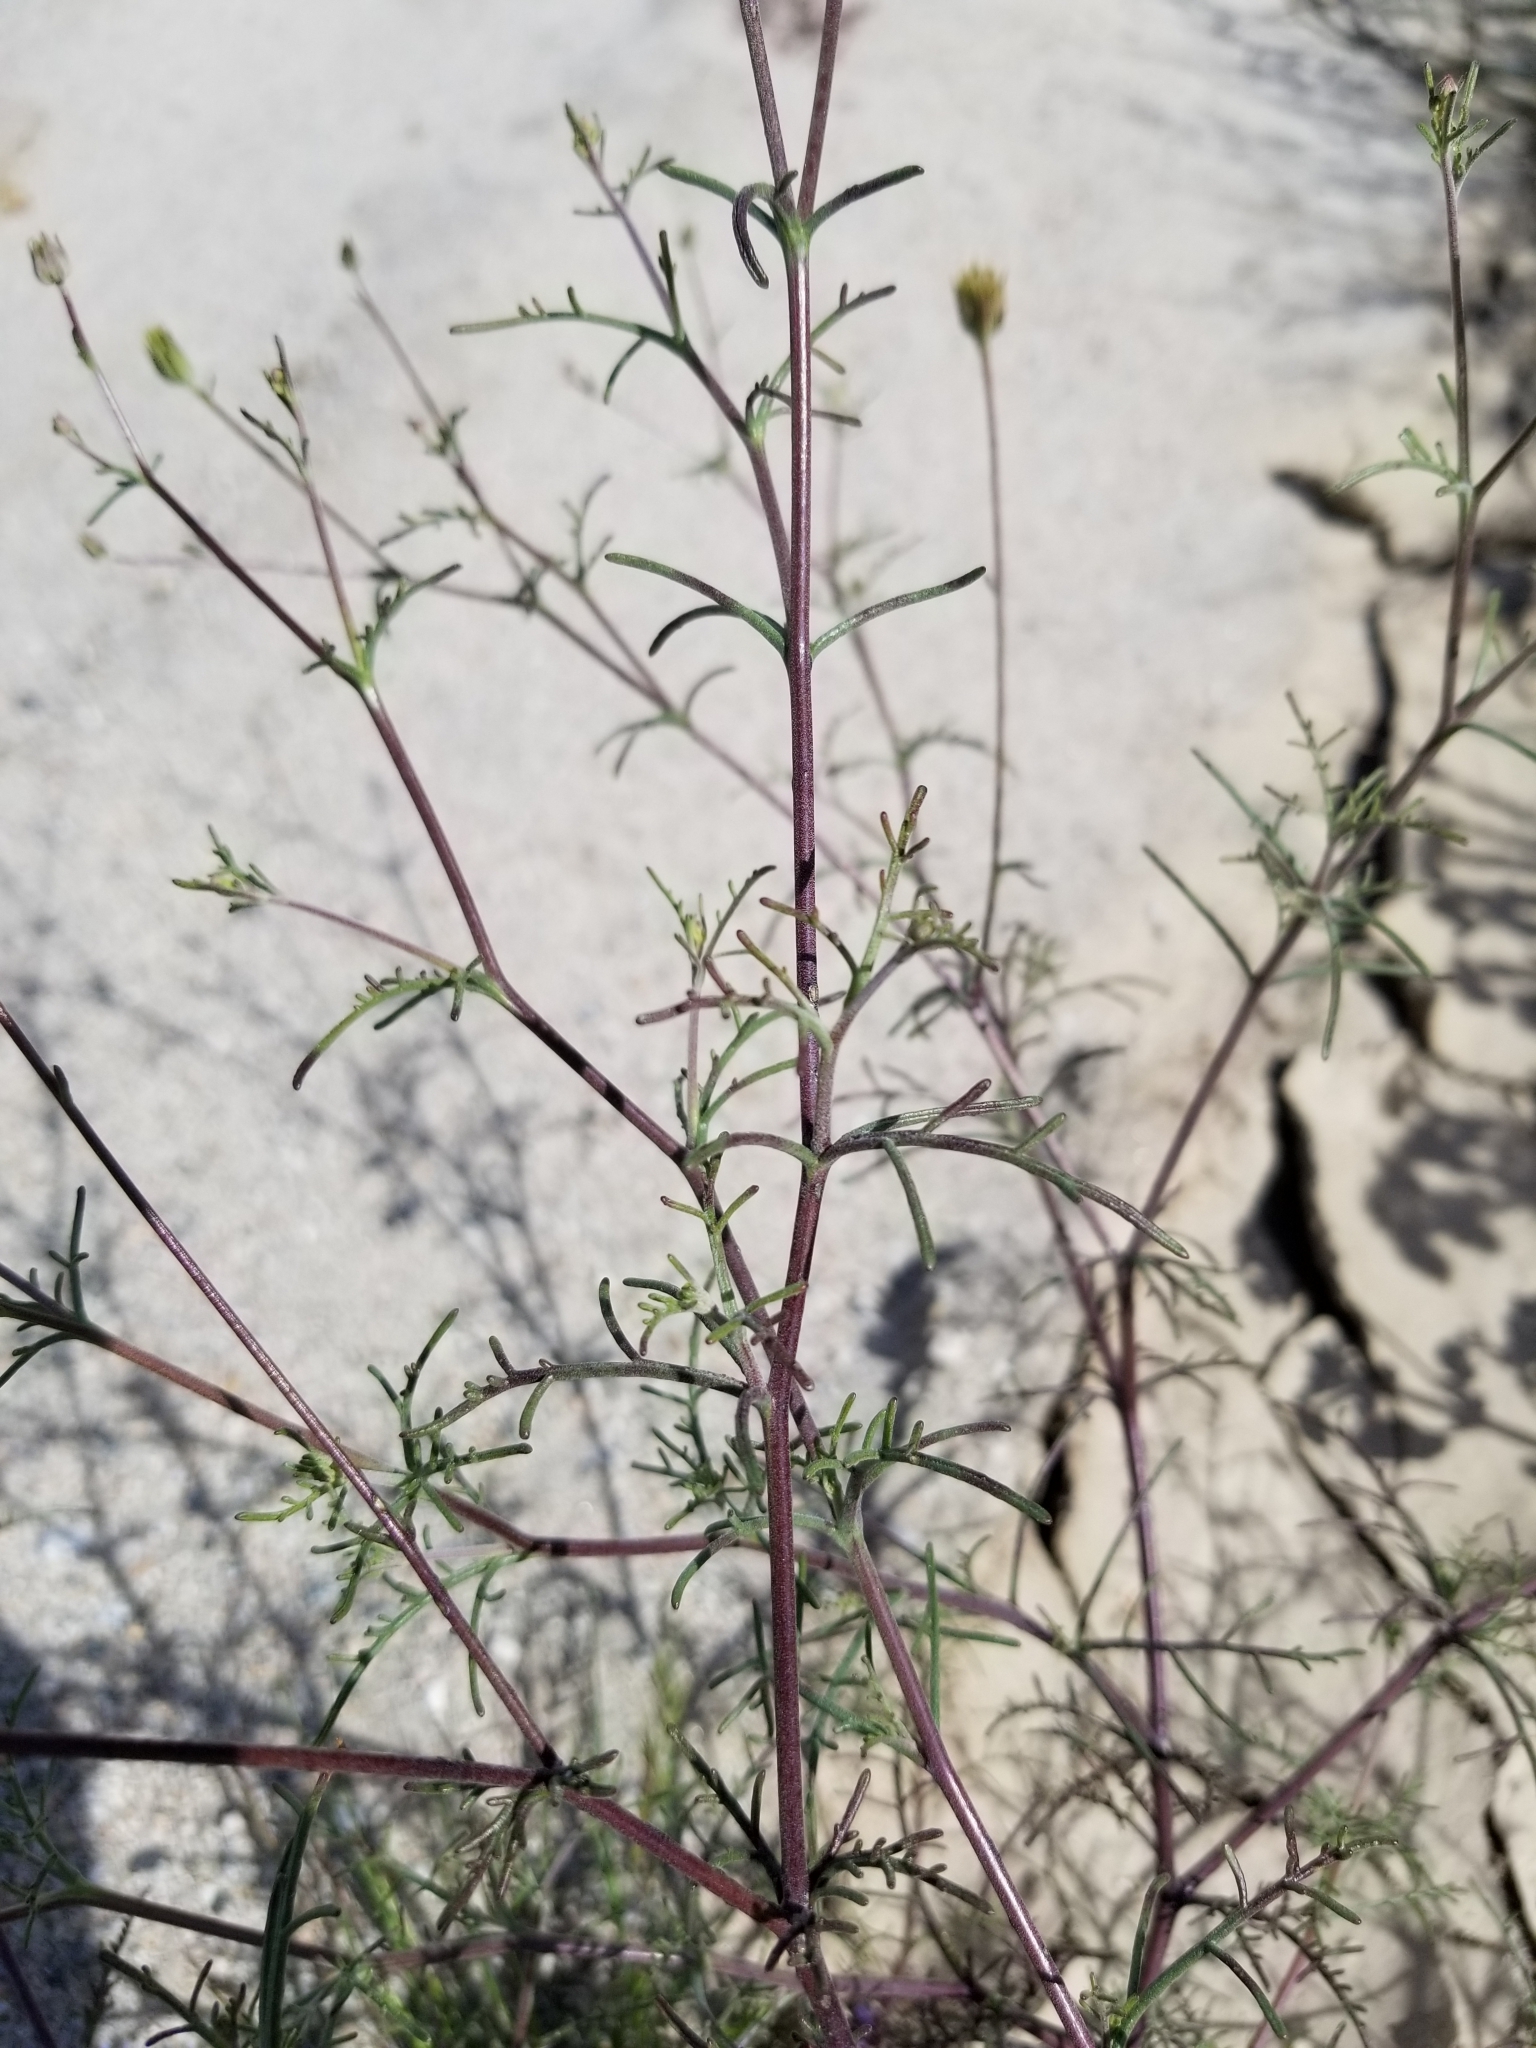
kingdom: Plantae
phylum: Tracheophyta
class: Magnoliopsida
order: Asterales
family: Asteraceae
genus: Chaenactis
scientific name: Chaenactis carphoclinia
